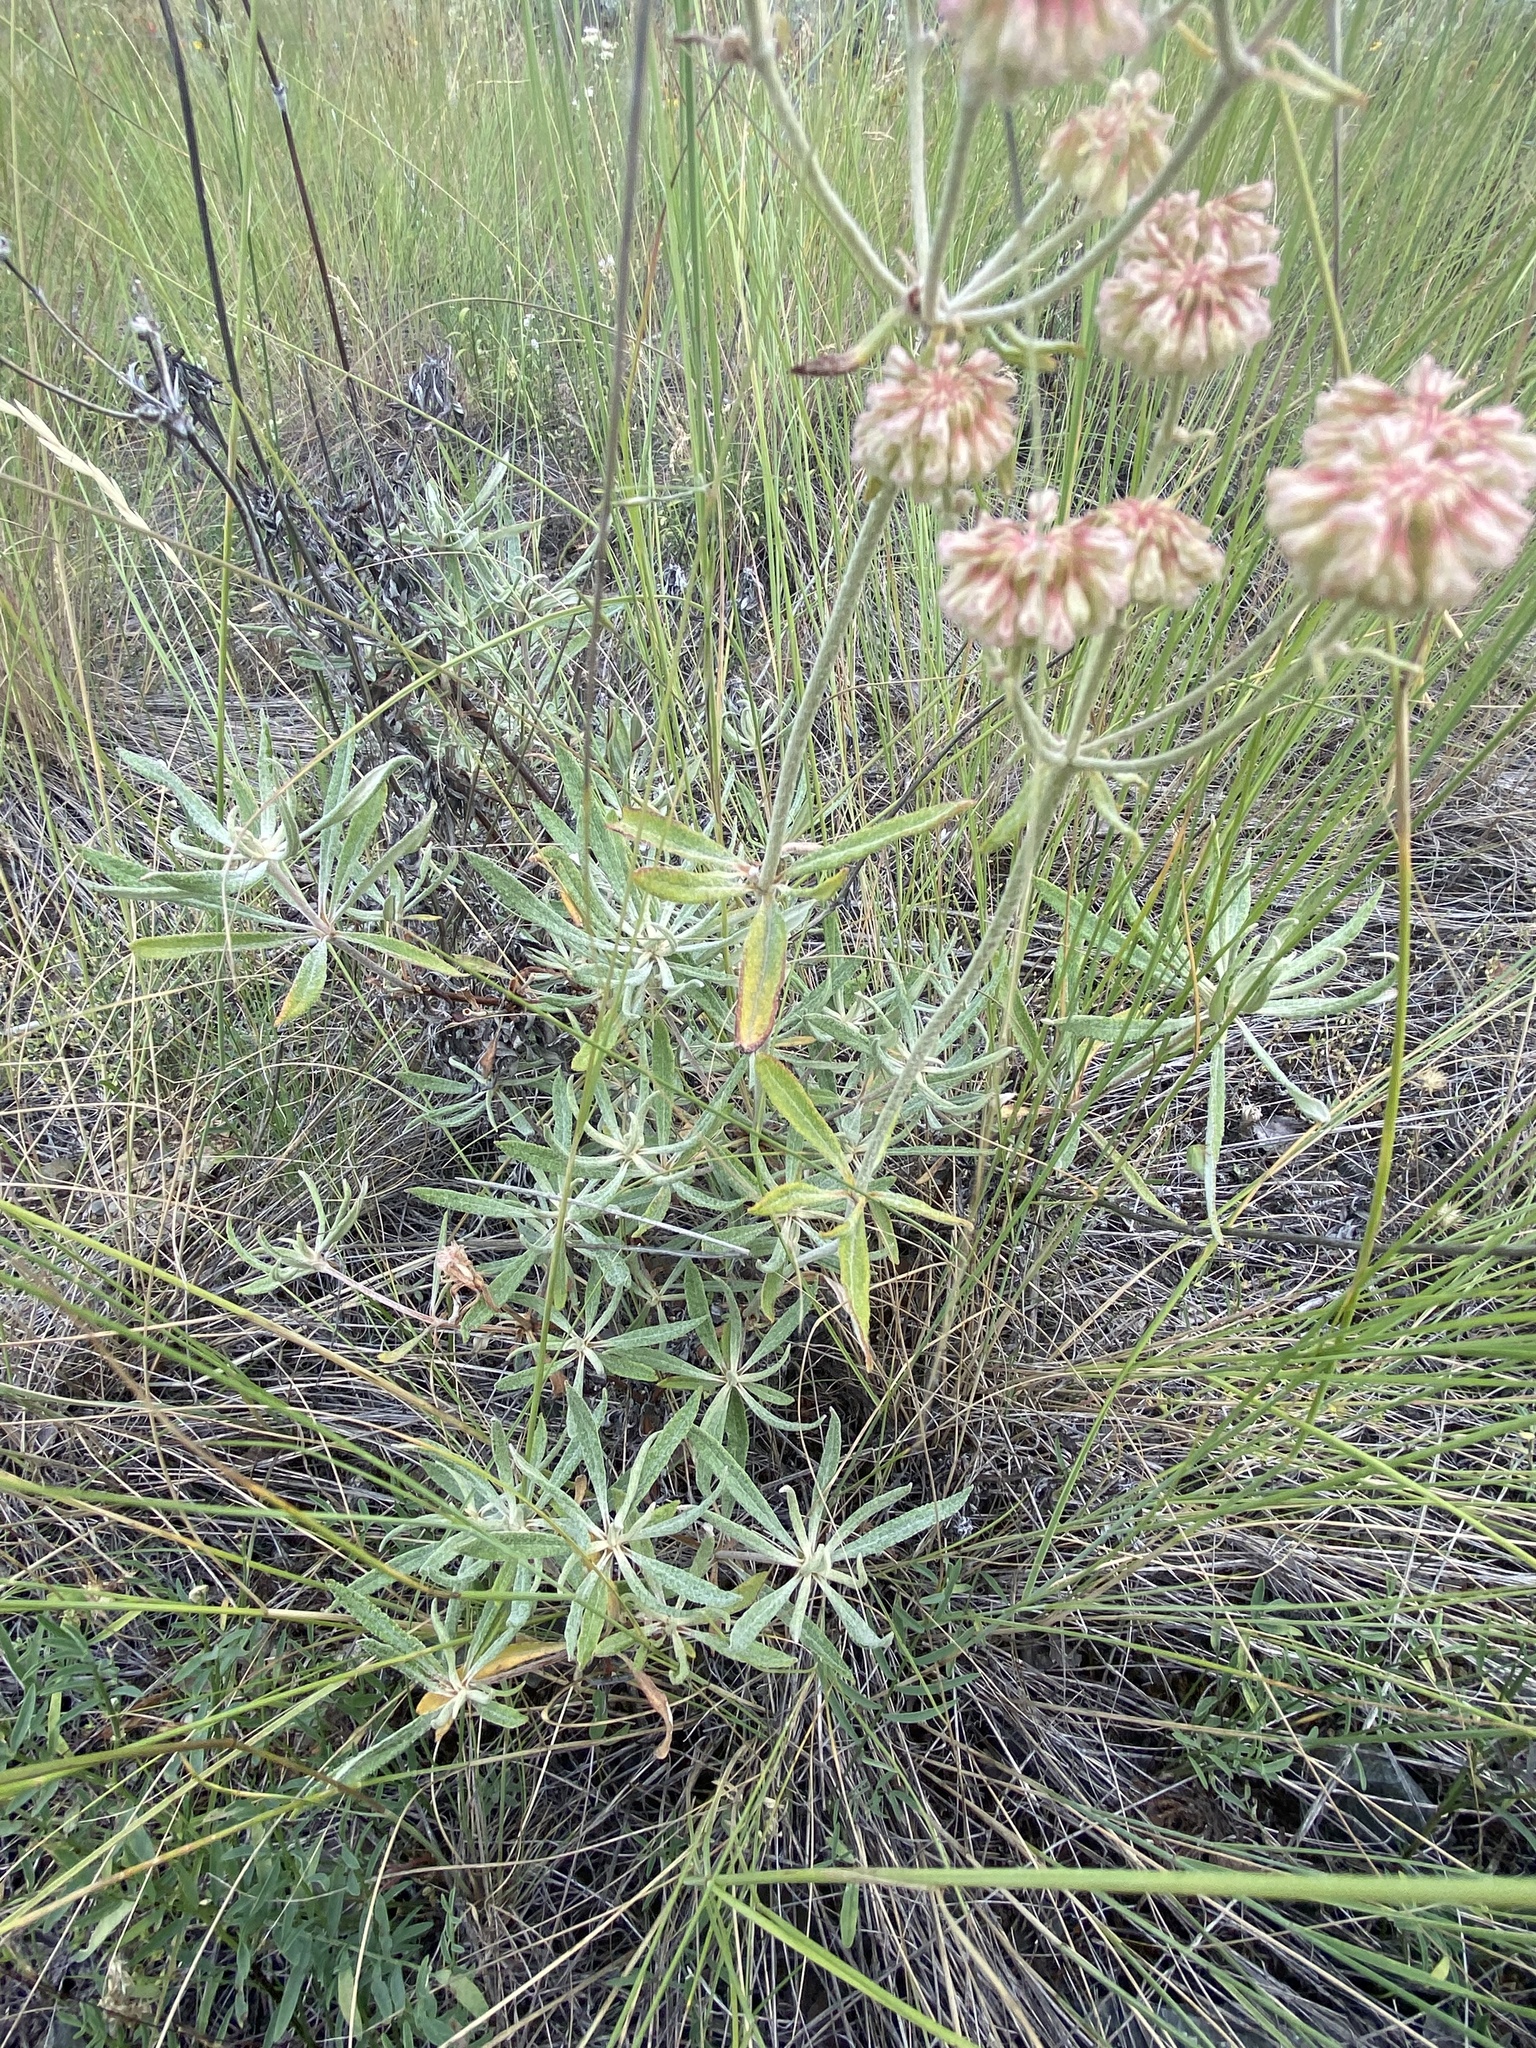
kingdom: Plantae
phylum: Tracheophyta
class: Magnoliopsida
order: Caryophyllales
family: Polygonaceae
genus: Eriogonum
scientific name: Eriogonum heracleoides
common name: Wyeth's buckwheat
